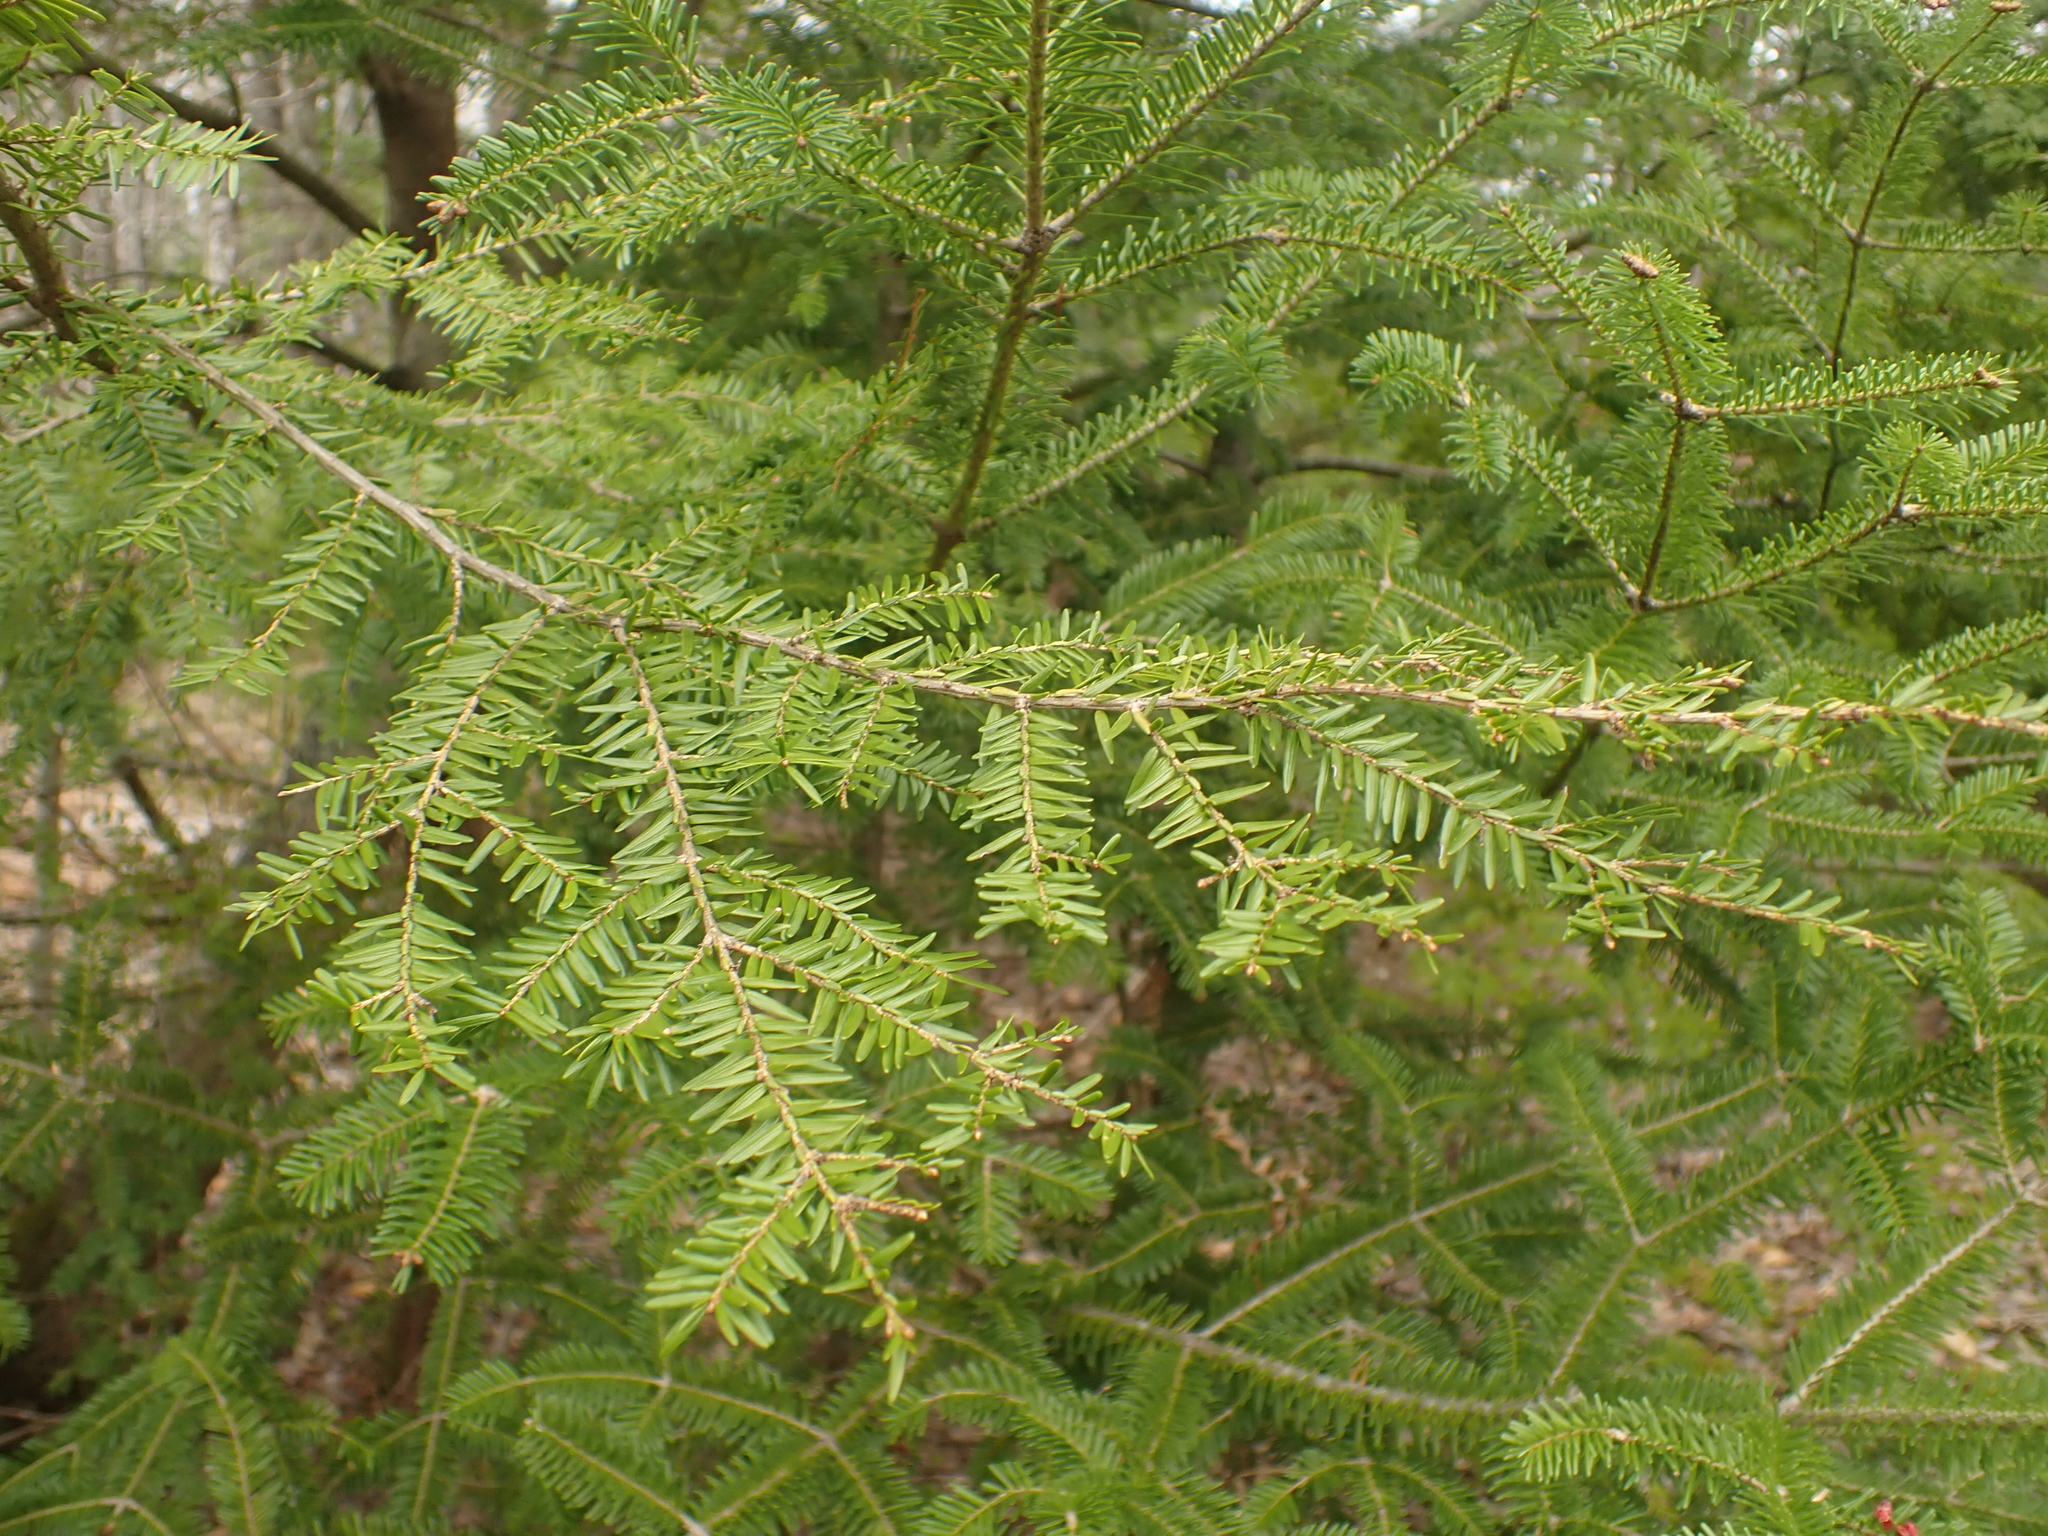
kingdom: Plantae
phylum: Tracheophyta
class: Pinopsida
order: Pinales
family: Pinaceae
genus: Tsuga
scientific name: Tsuga canadensis
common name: Eastern hemlock
